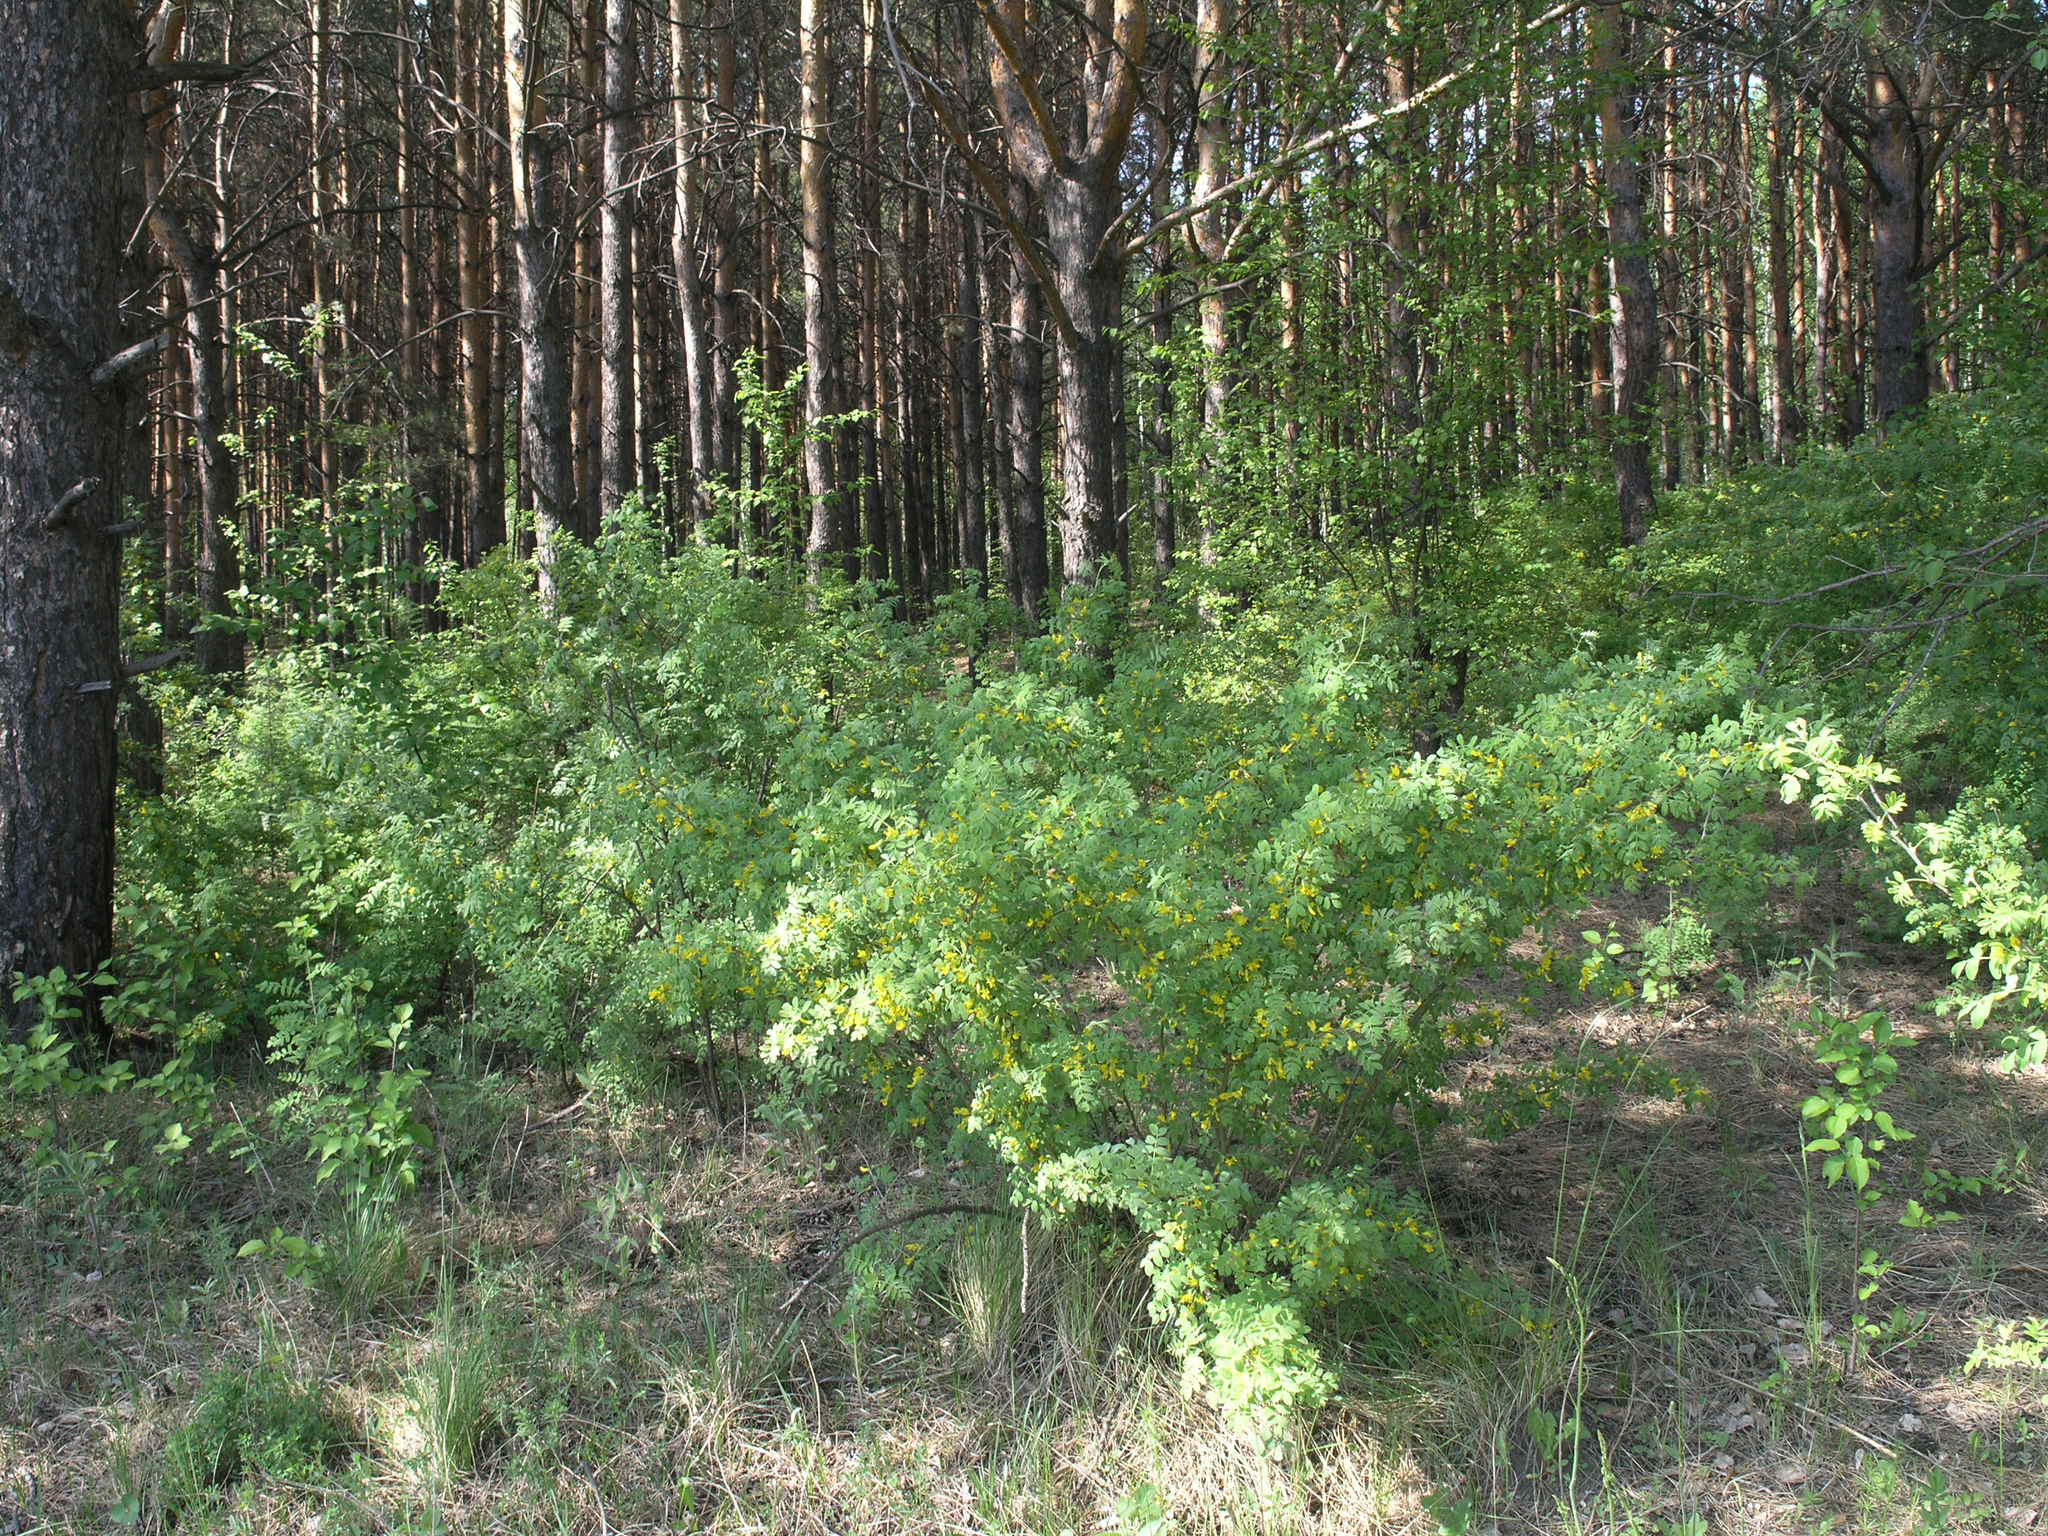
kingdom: Plantae
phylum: Tracheophyta
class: Magnoliopsida
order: Fabales
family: Fabaceae
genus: Caragana
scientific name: Caragana arborescens
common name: Siberian peashrub
